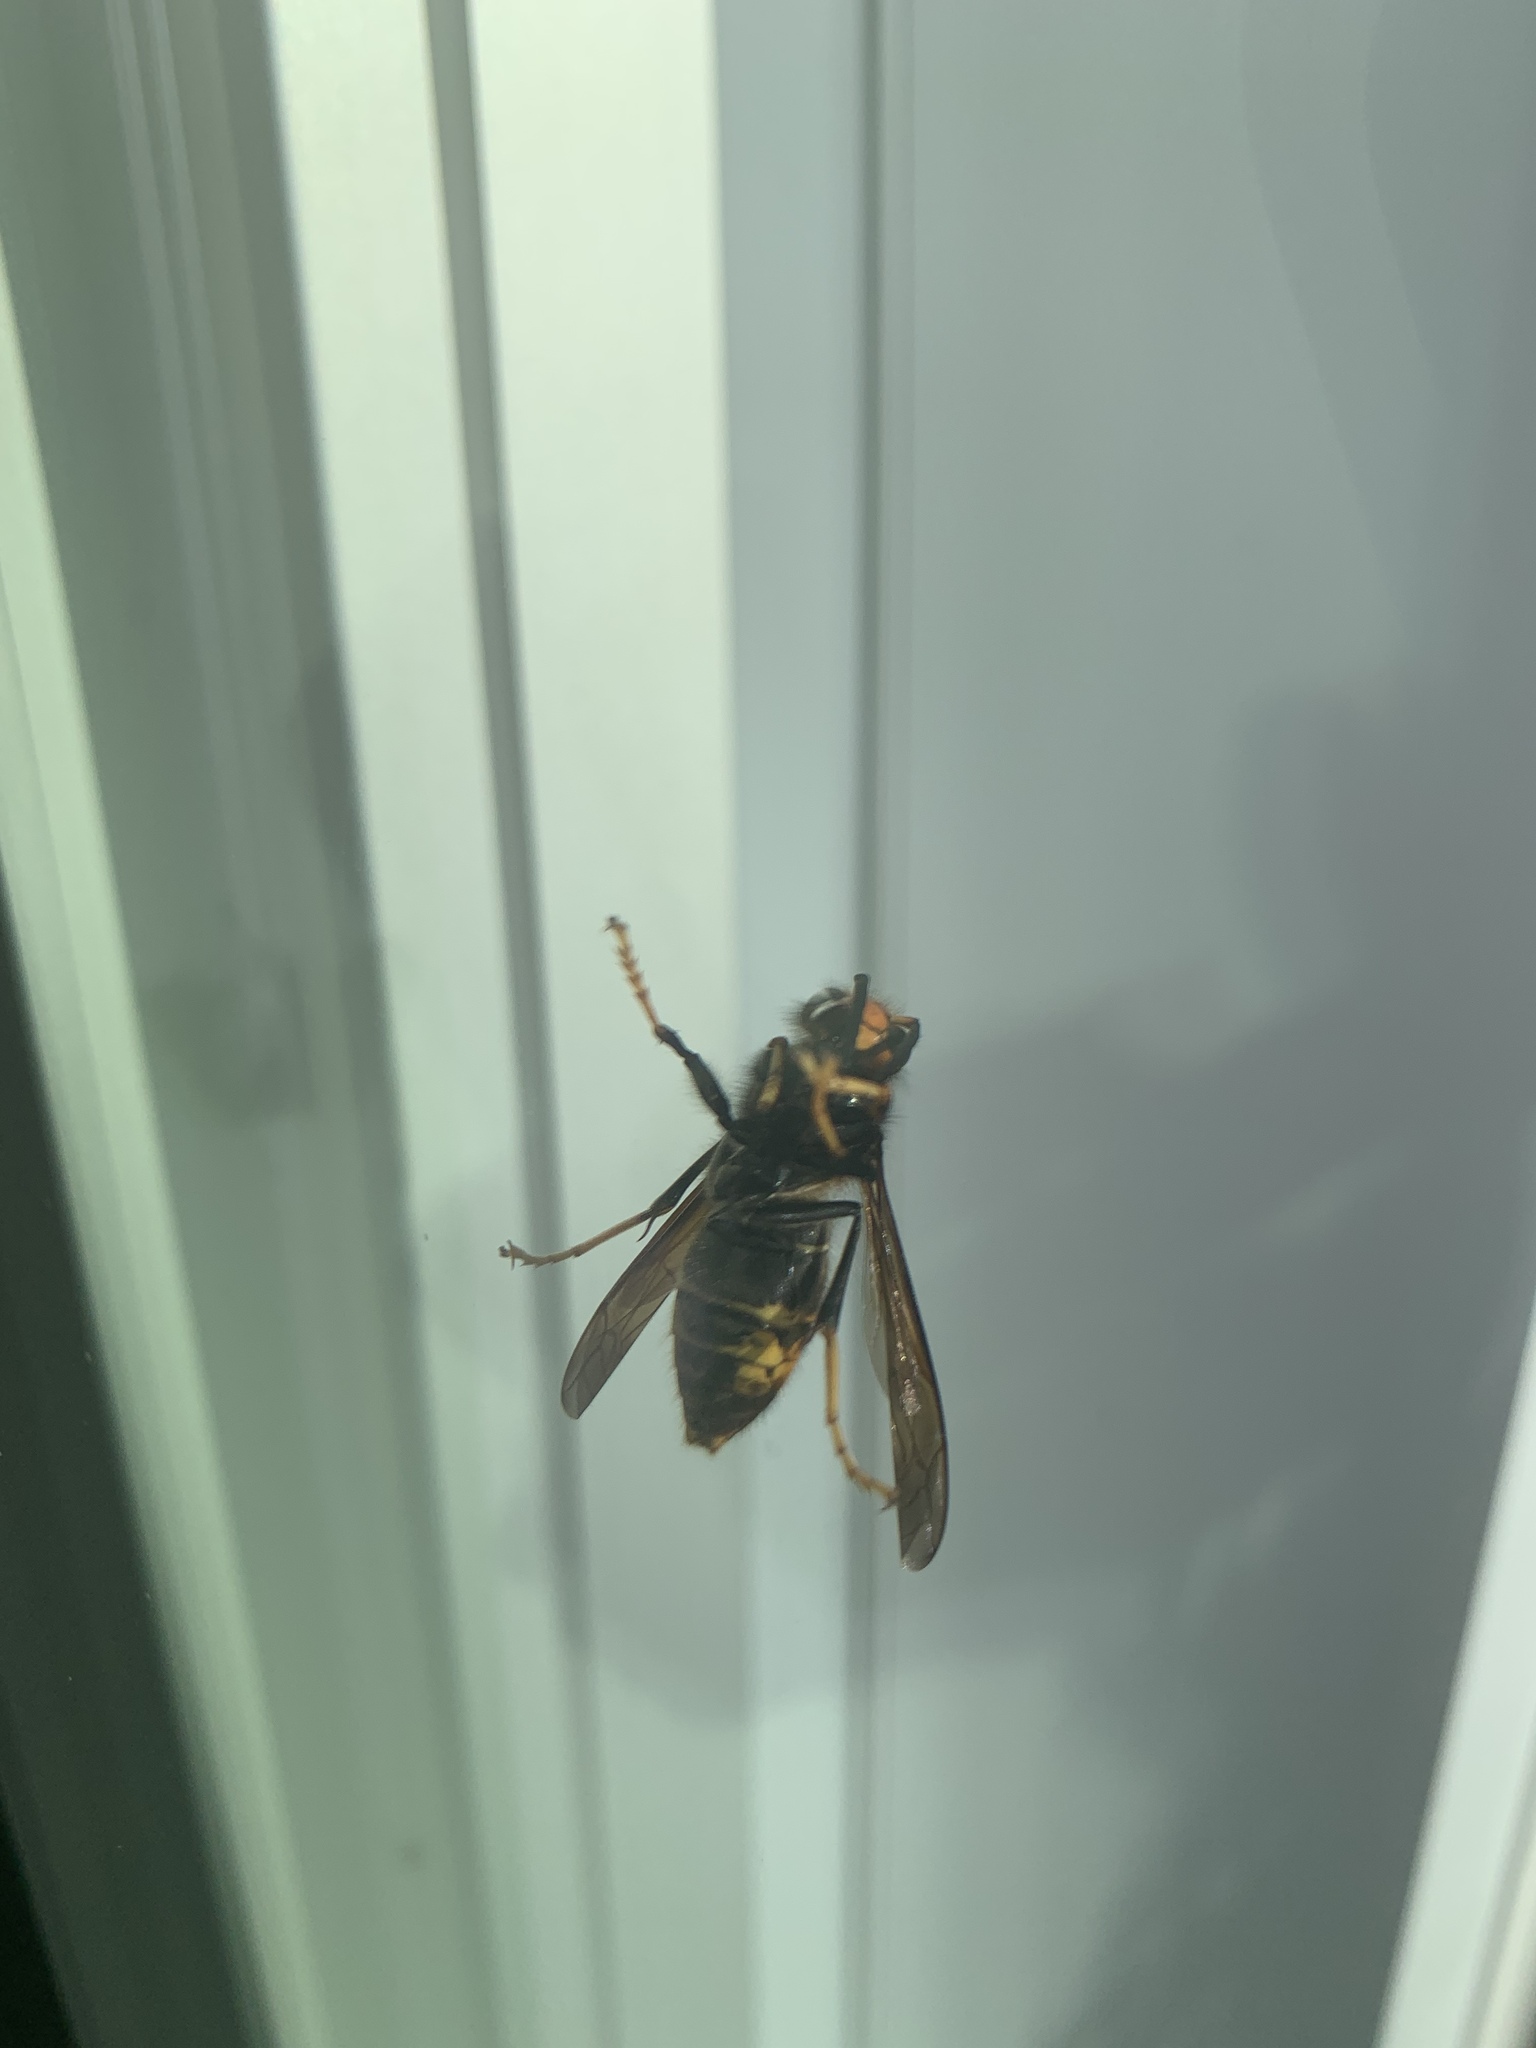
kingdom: Animalia
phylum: Arthropoda
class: Insecta
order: Hymenoptera
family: Vespidae
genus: Vespa
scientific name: Vespa velutina
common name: Asian hornet
